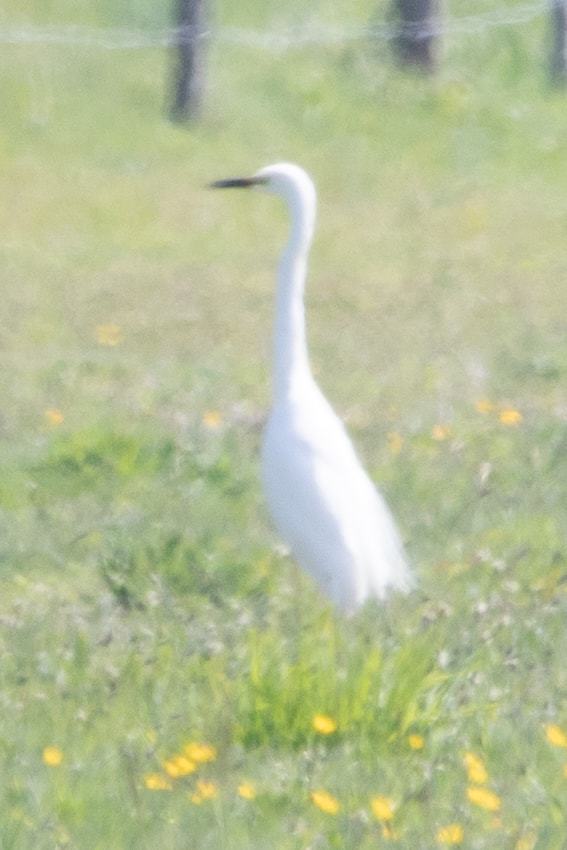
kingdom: Animalia
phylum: Chordata
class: Aves
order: Pelecaniformes
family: Ardeidae
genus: Egretta
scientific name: Egretta garzetta
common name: Little egret
